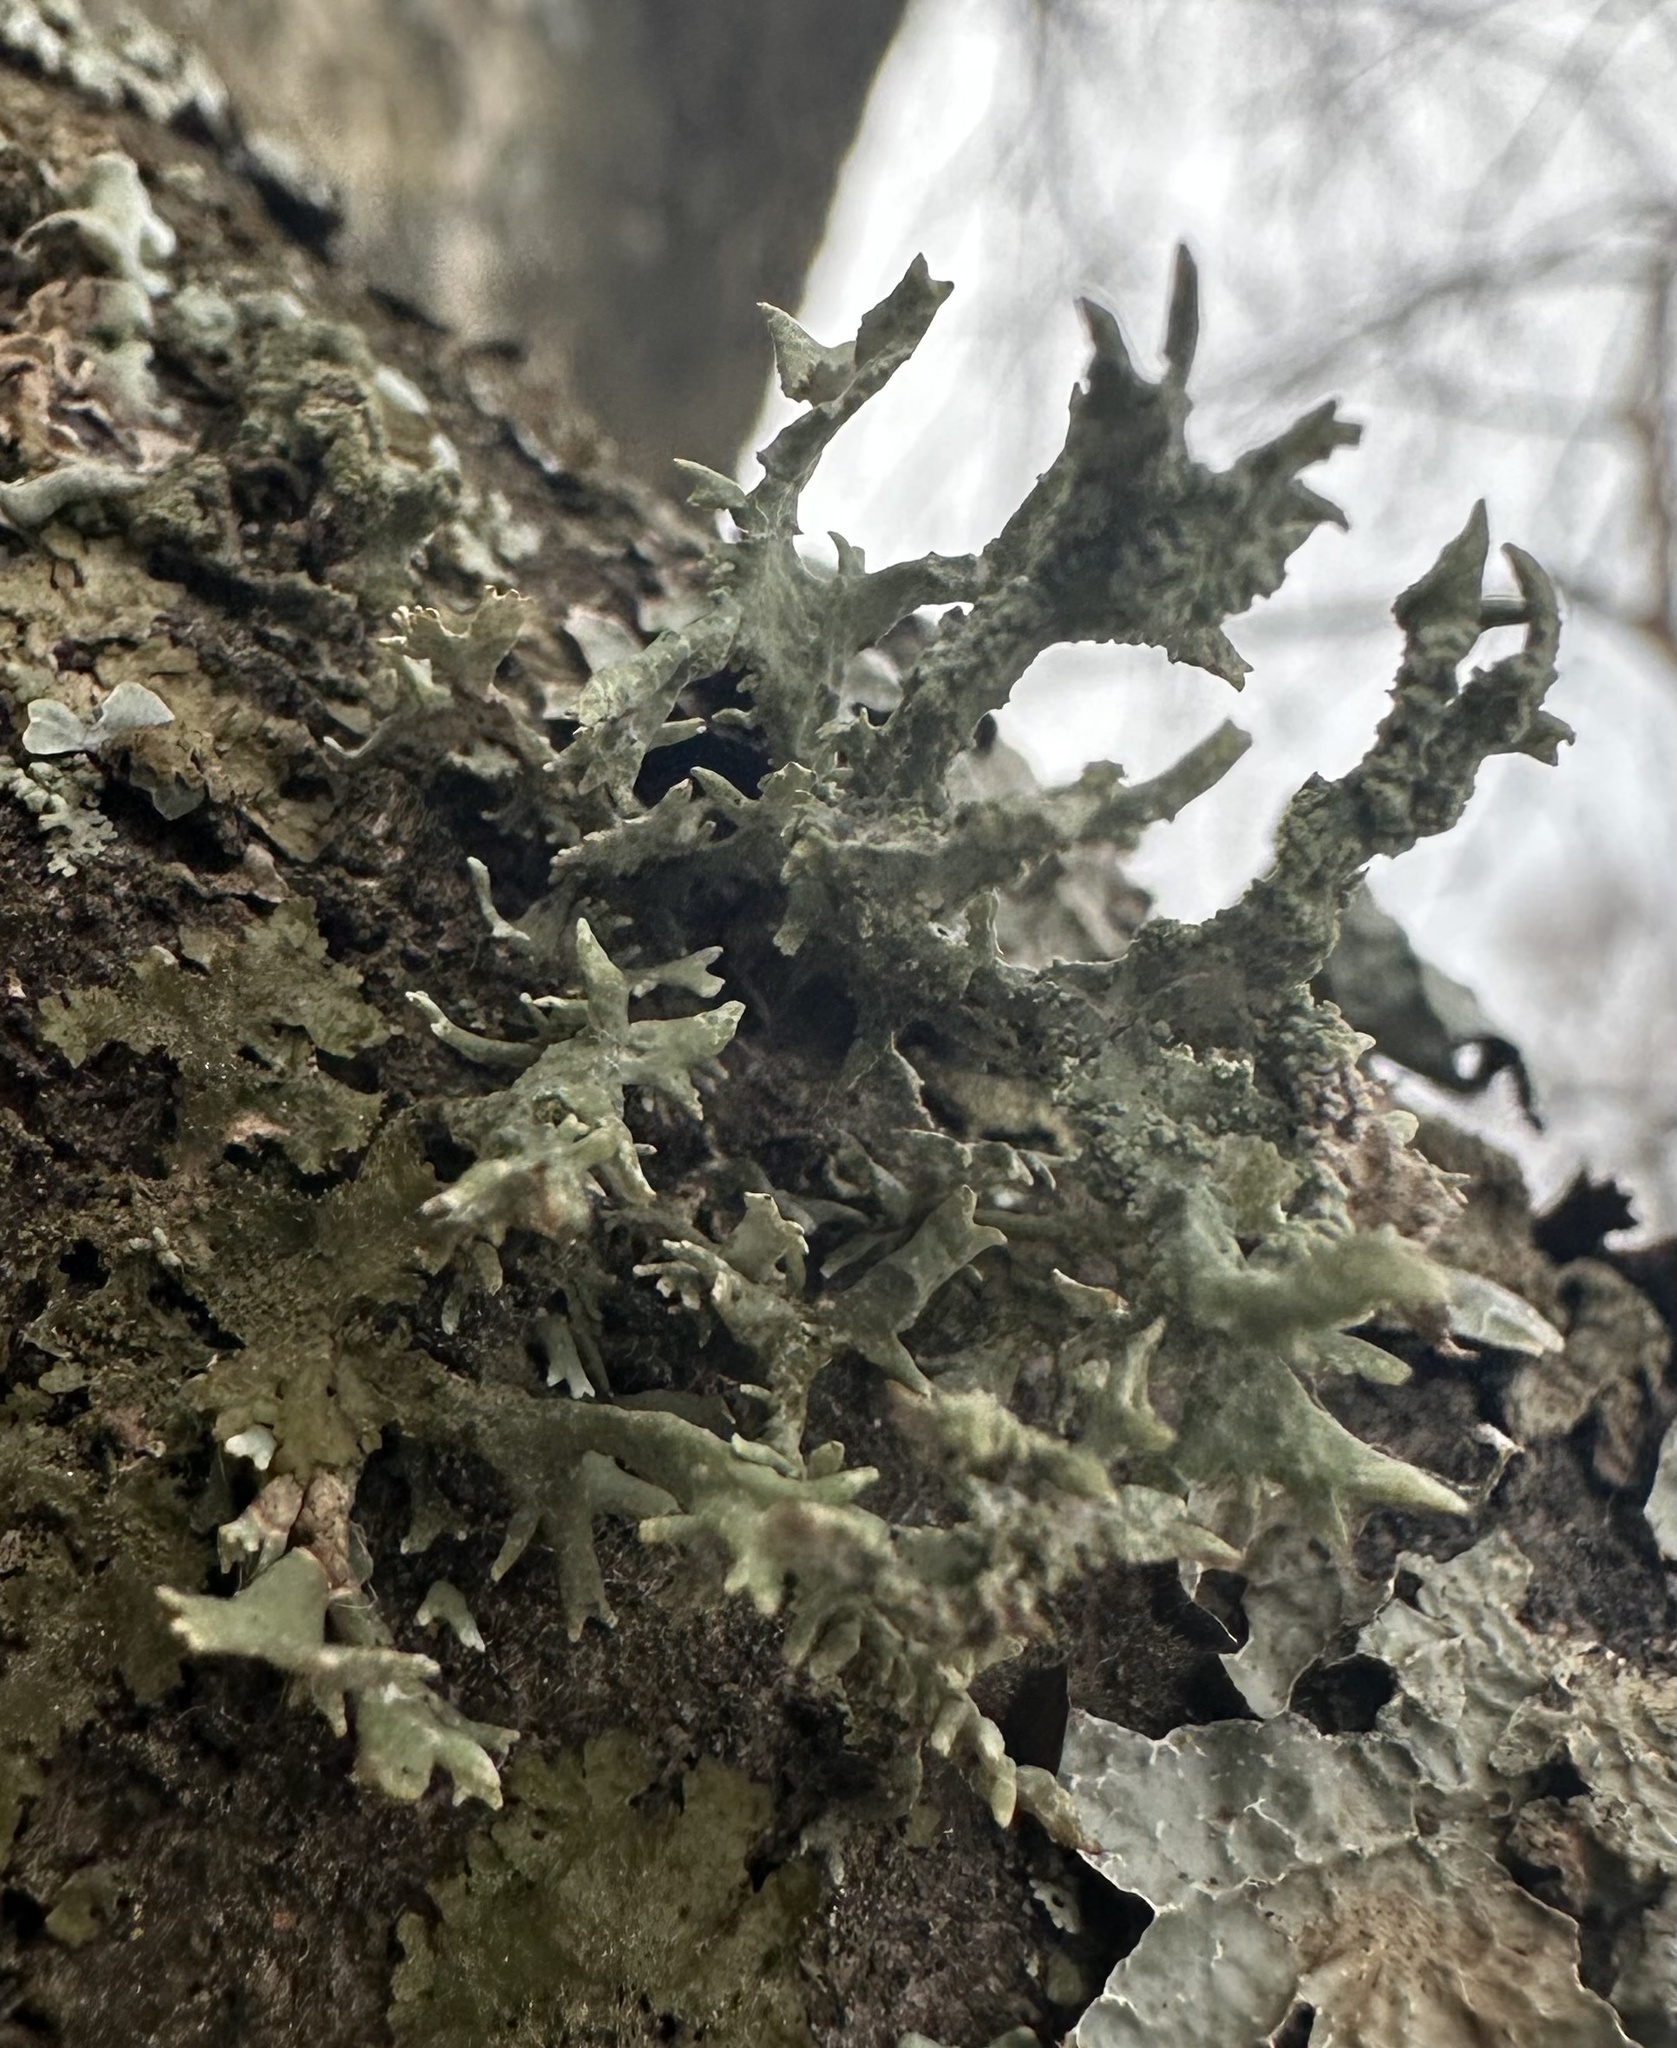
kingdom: Fungi
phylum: Ascomycota
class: Lecanoromycetes
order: Lecanorales
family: Parmeliaceae
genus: Evernia
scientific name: Evernia prunastri
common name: Oak moss
